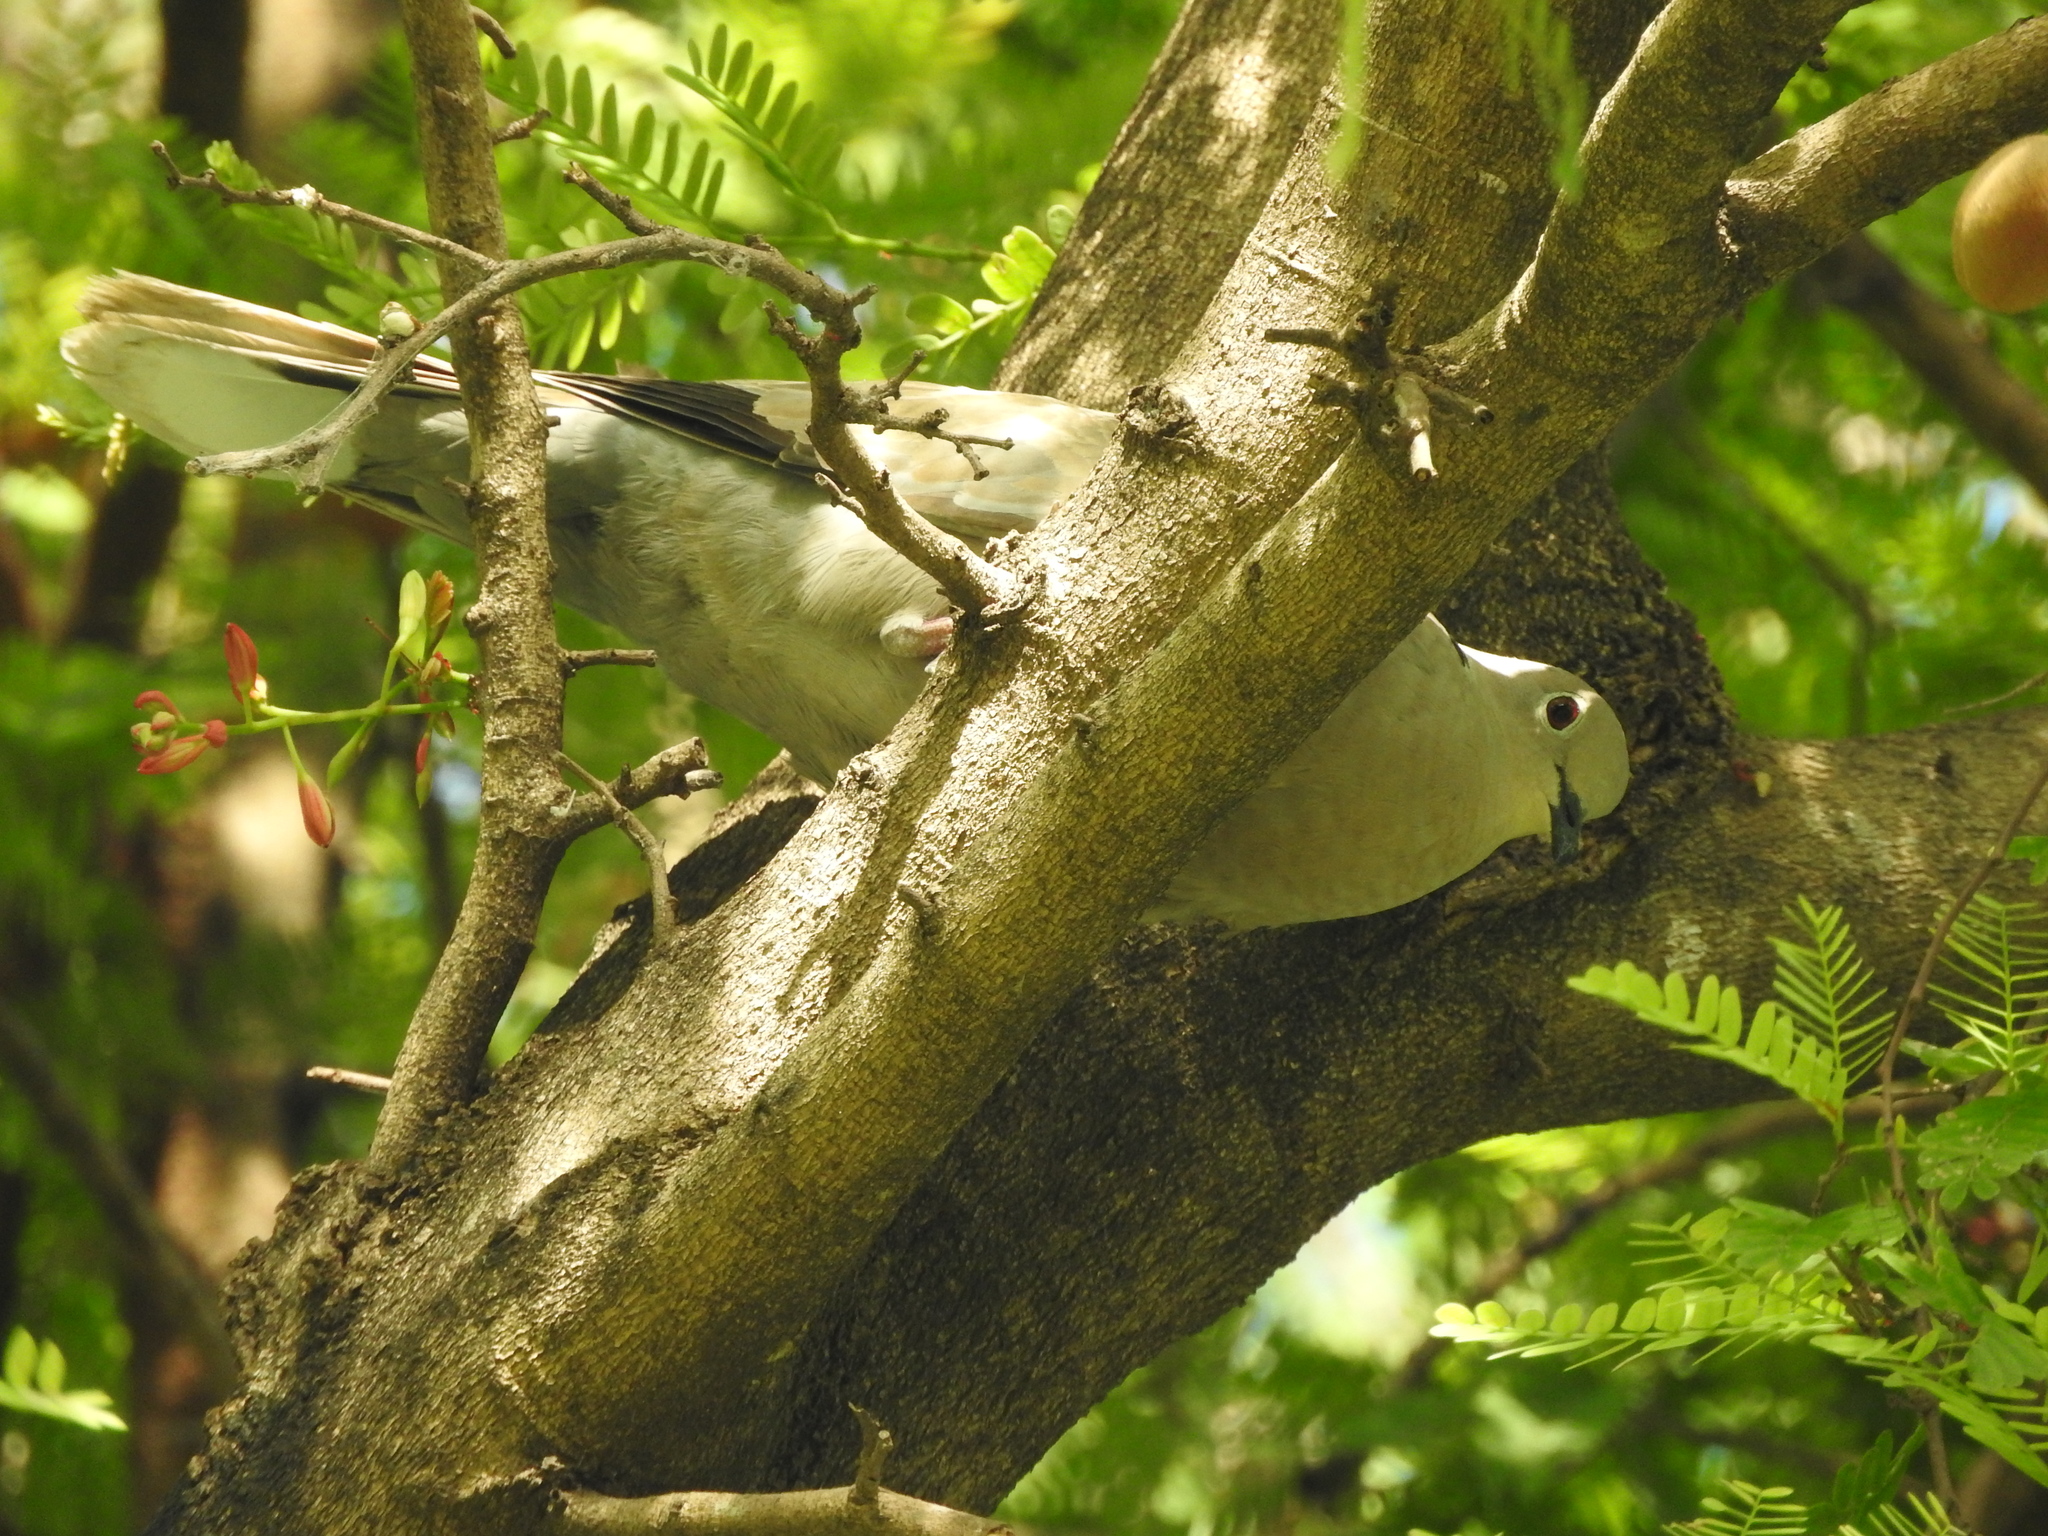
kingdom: Animalia
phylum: Chordata
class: Aves
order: Columbiformes
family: Columbidae
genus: Streptopelia
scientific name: Streptopelia decaocto
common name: Eurasian collared dove
